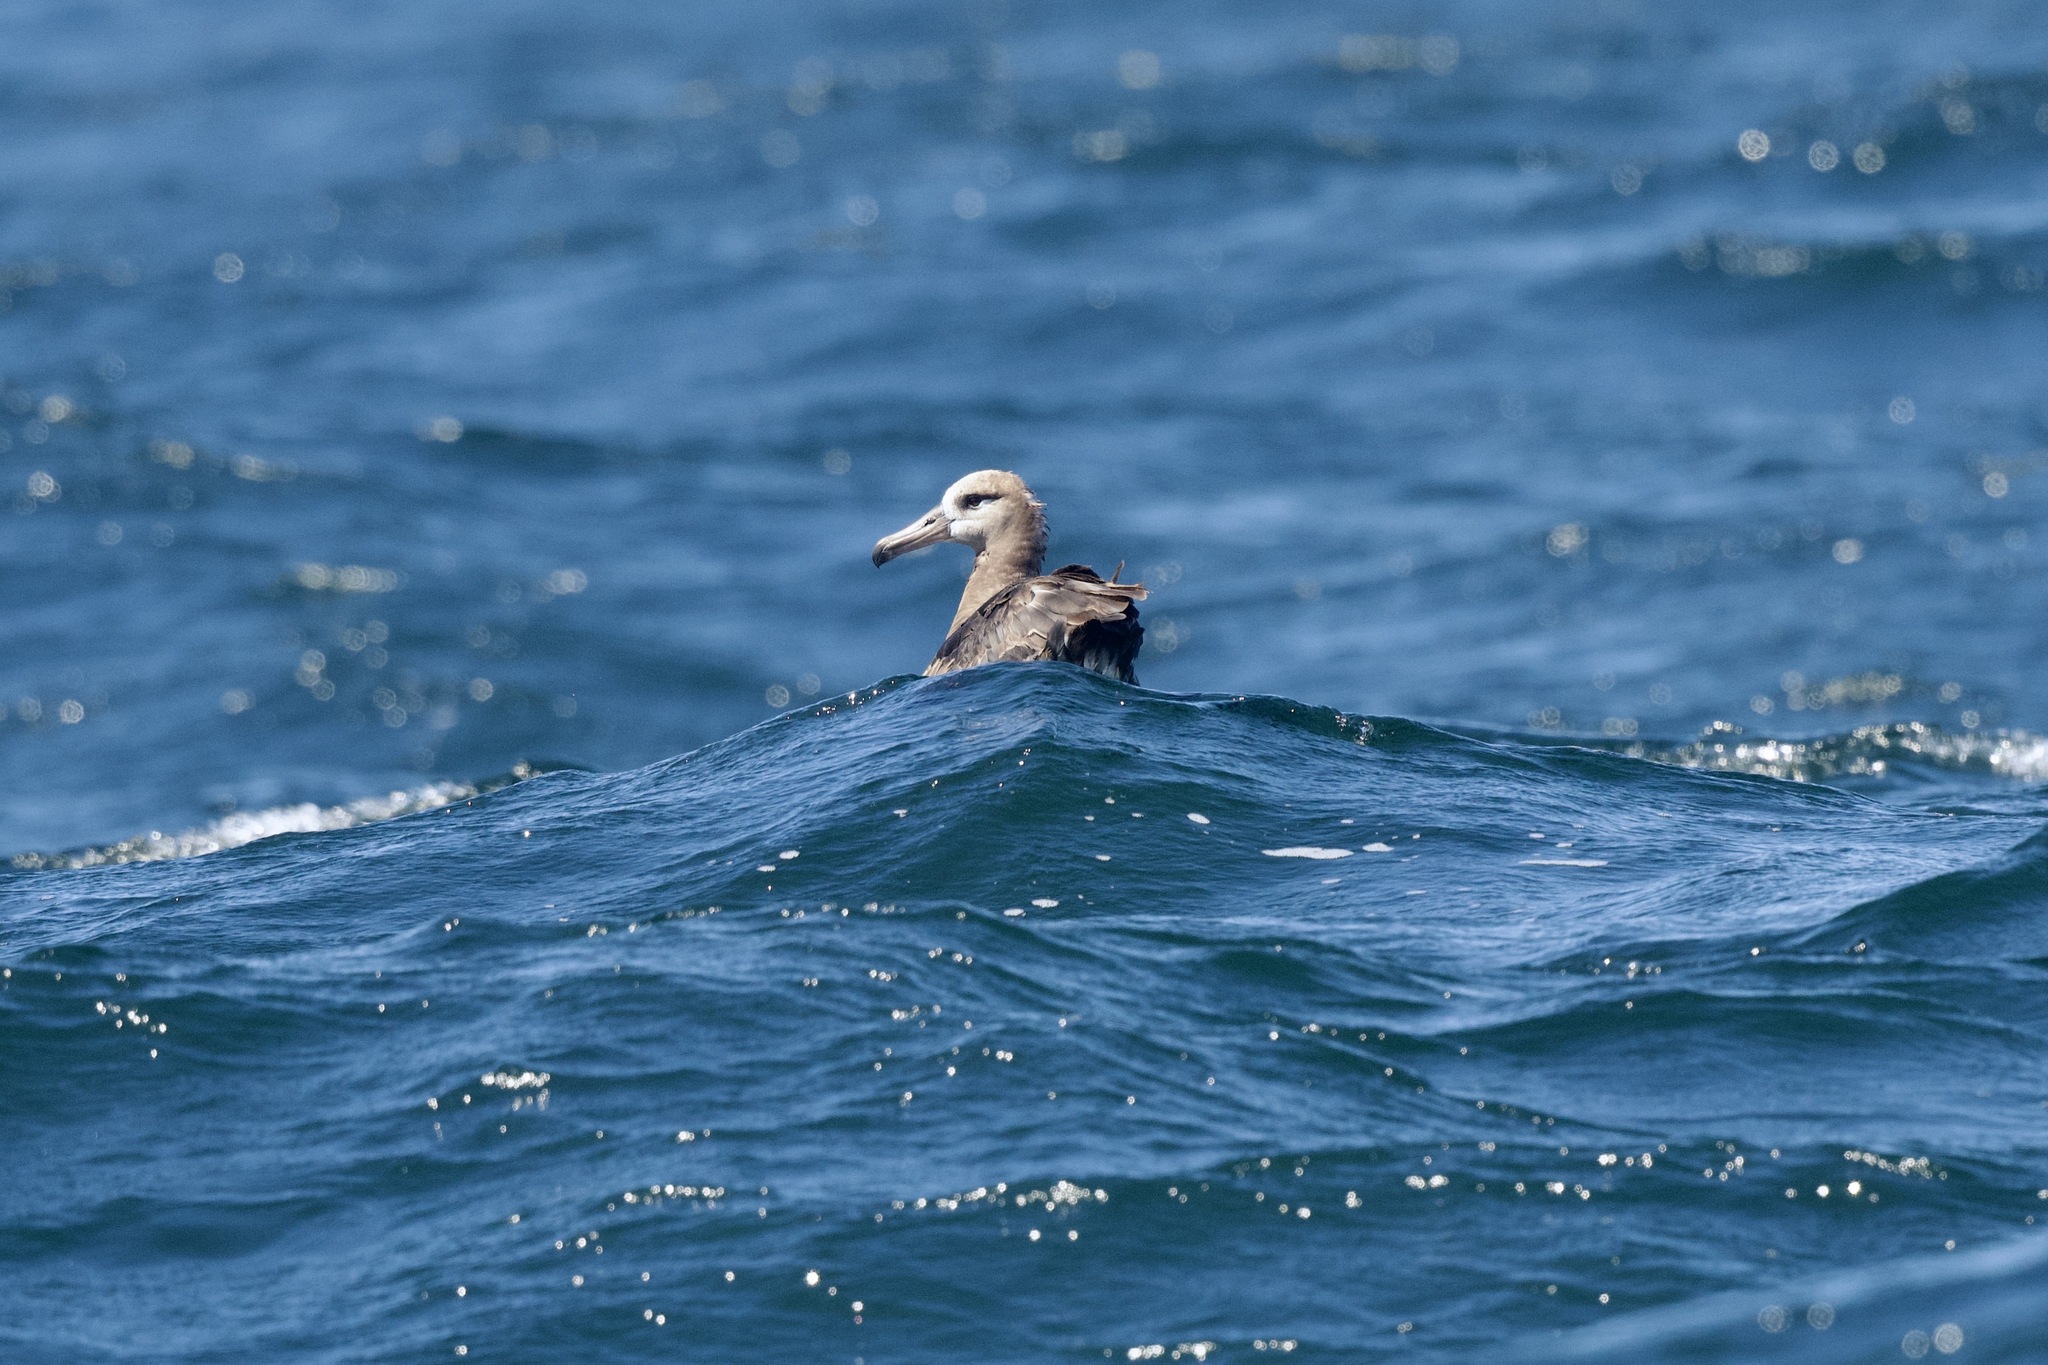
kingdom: Animalia
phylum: Chordata
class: Aves
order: Procellariiformes
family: Diomedeidae
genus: Phoebastria
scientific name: Phoebastria nigripes
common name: Black-footed albatross
